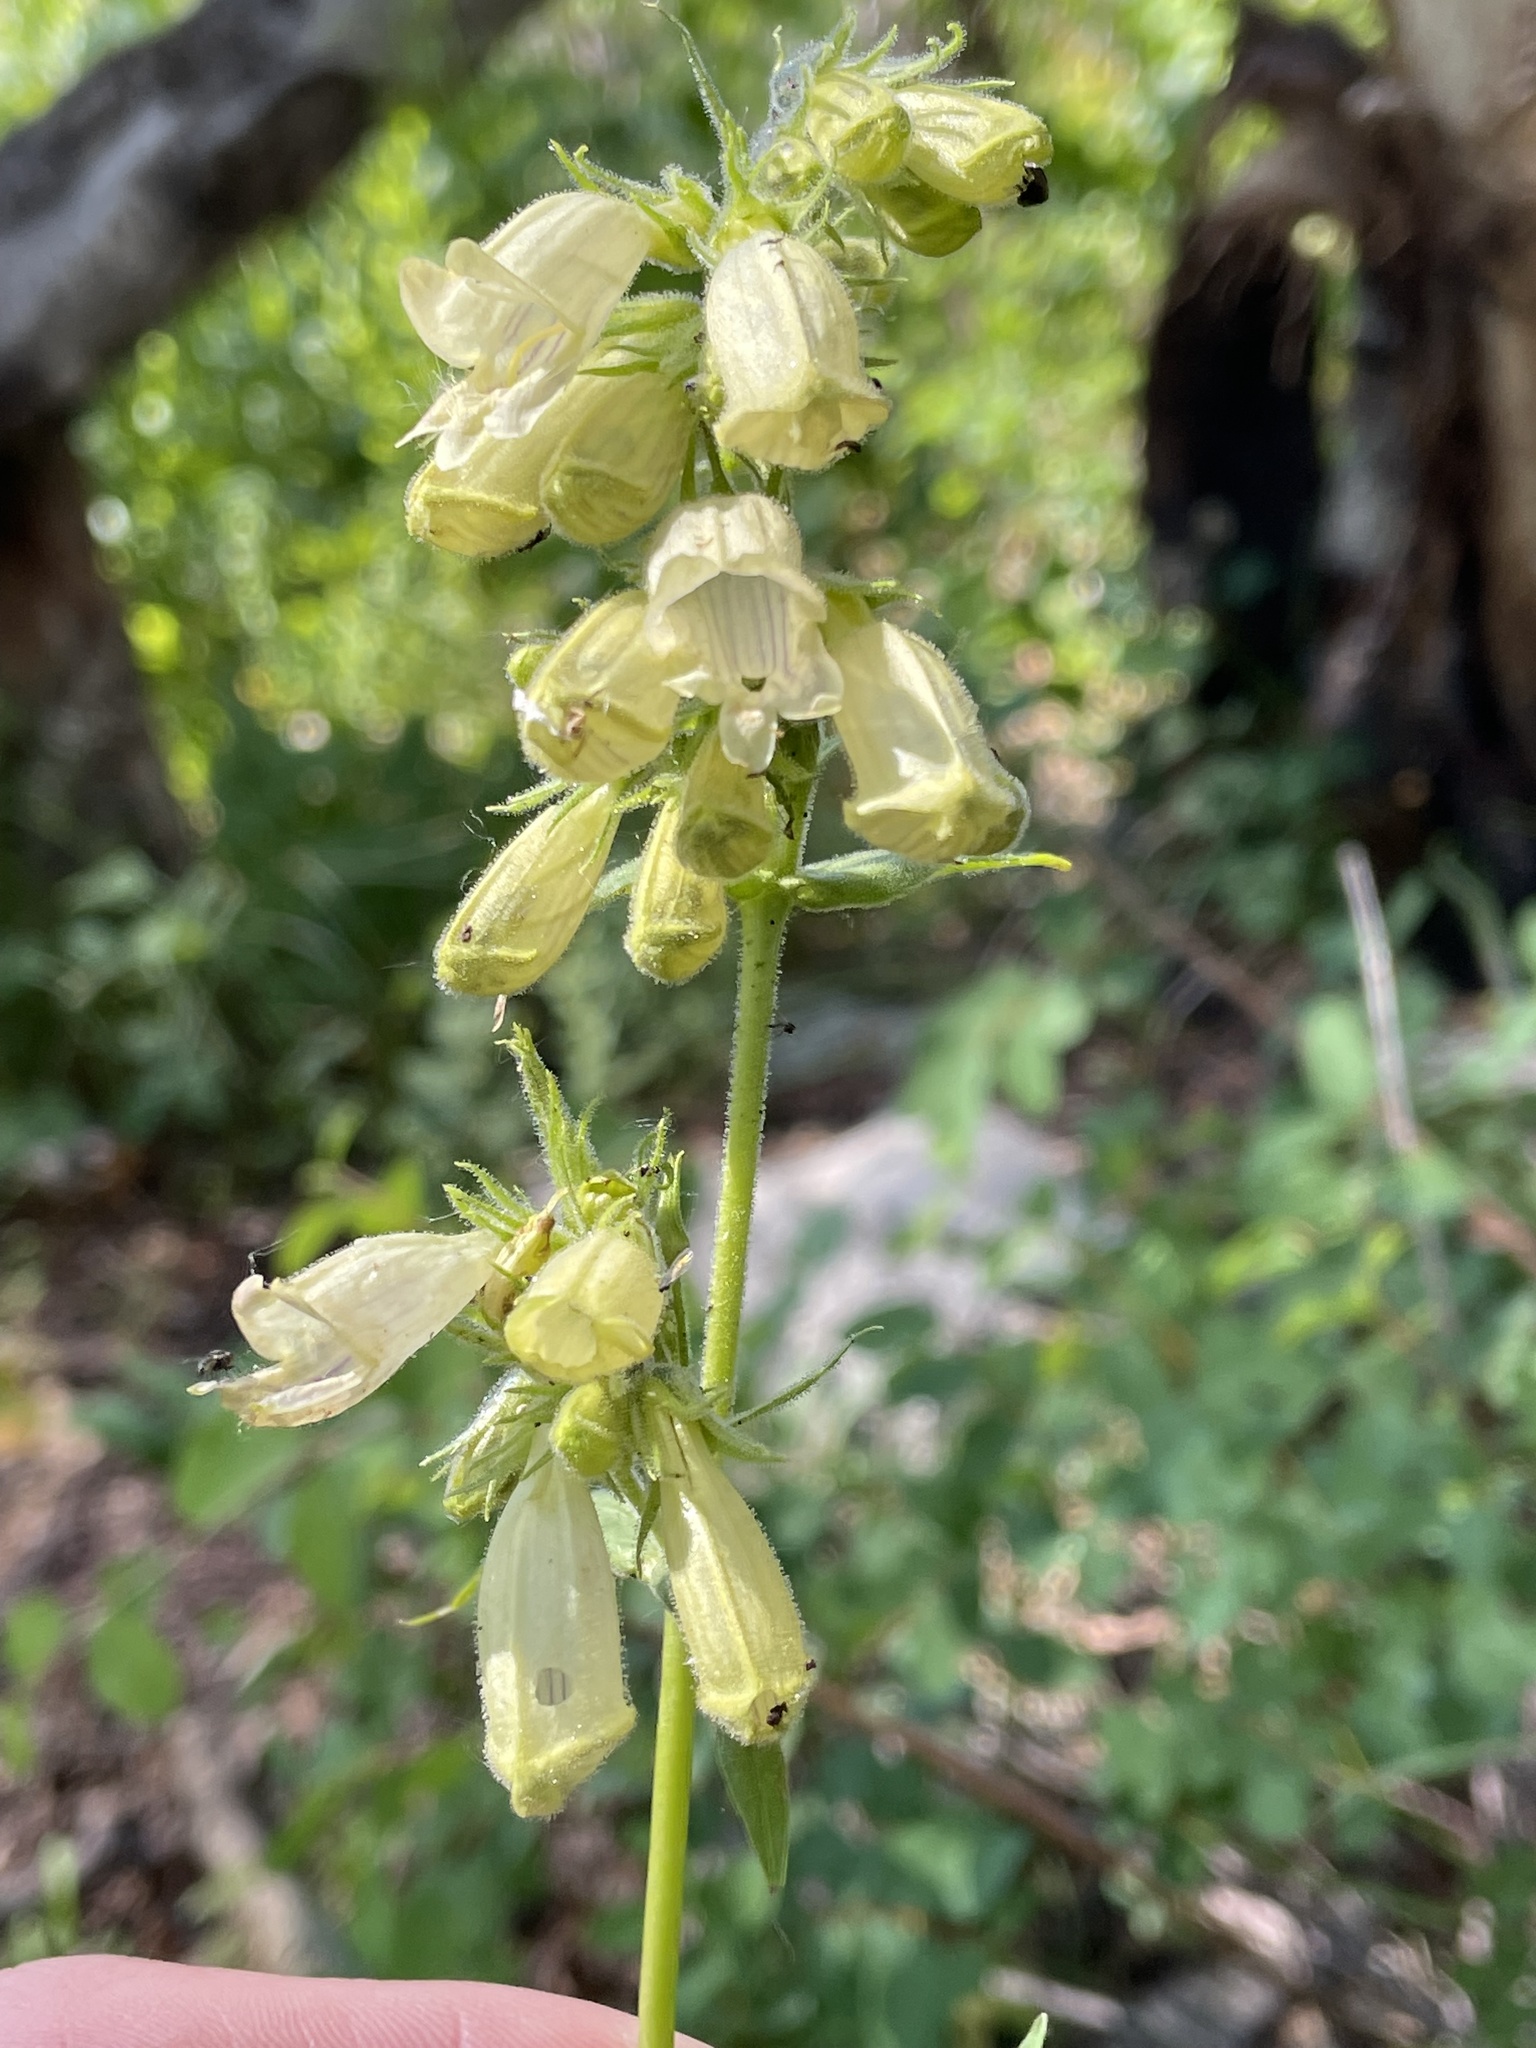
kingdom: Plantae
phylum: Tracheophyta
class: Magnoliopsida
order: Lamiales
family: Plantaginaceae
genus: Penstemon
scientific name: Penstemon whippleanus
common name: Whipple's penstemon
